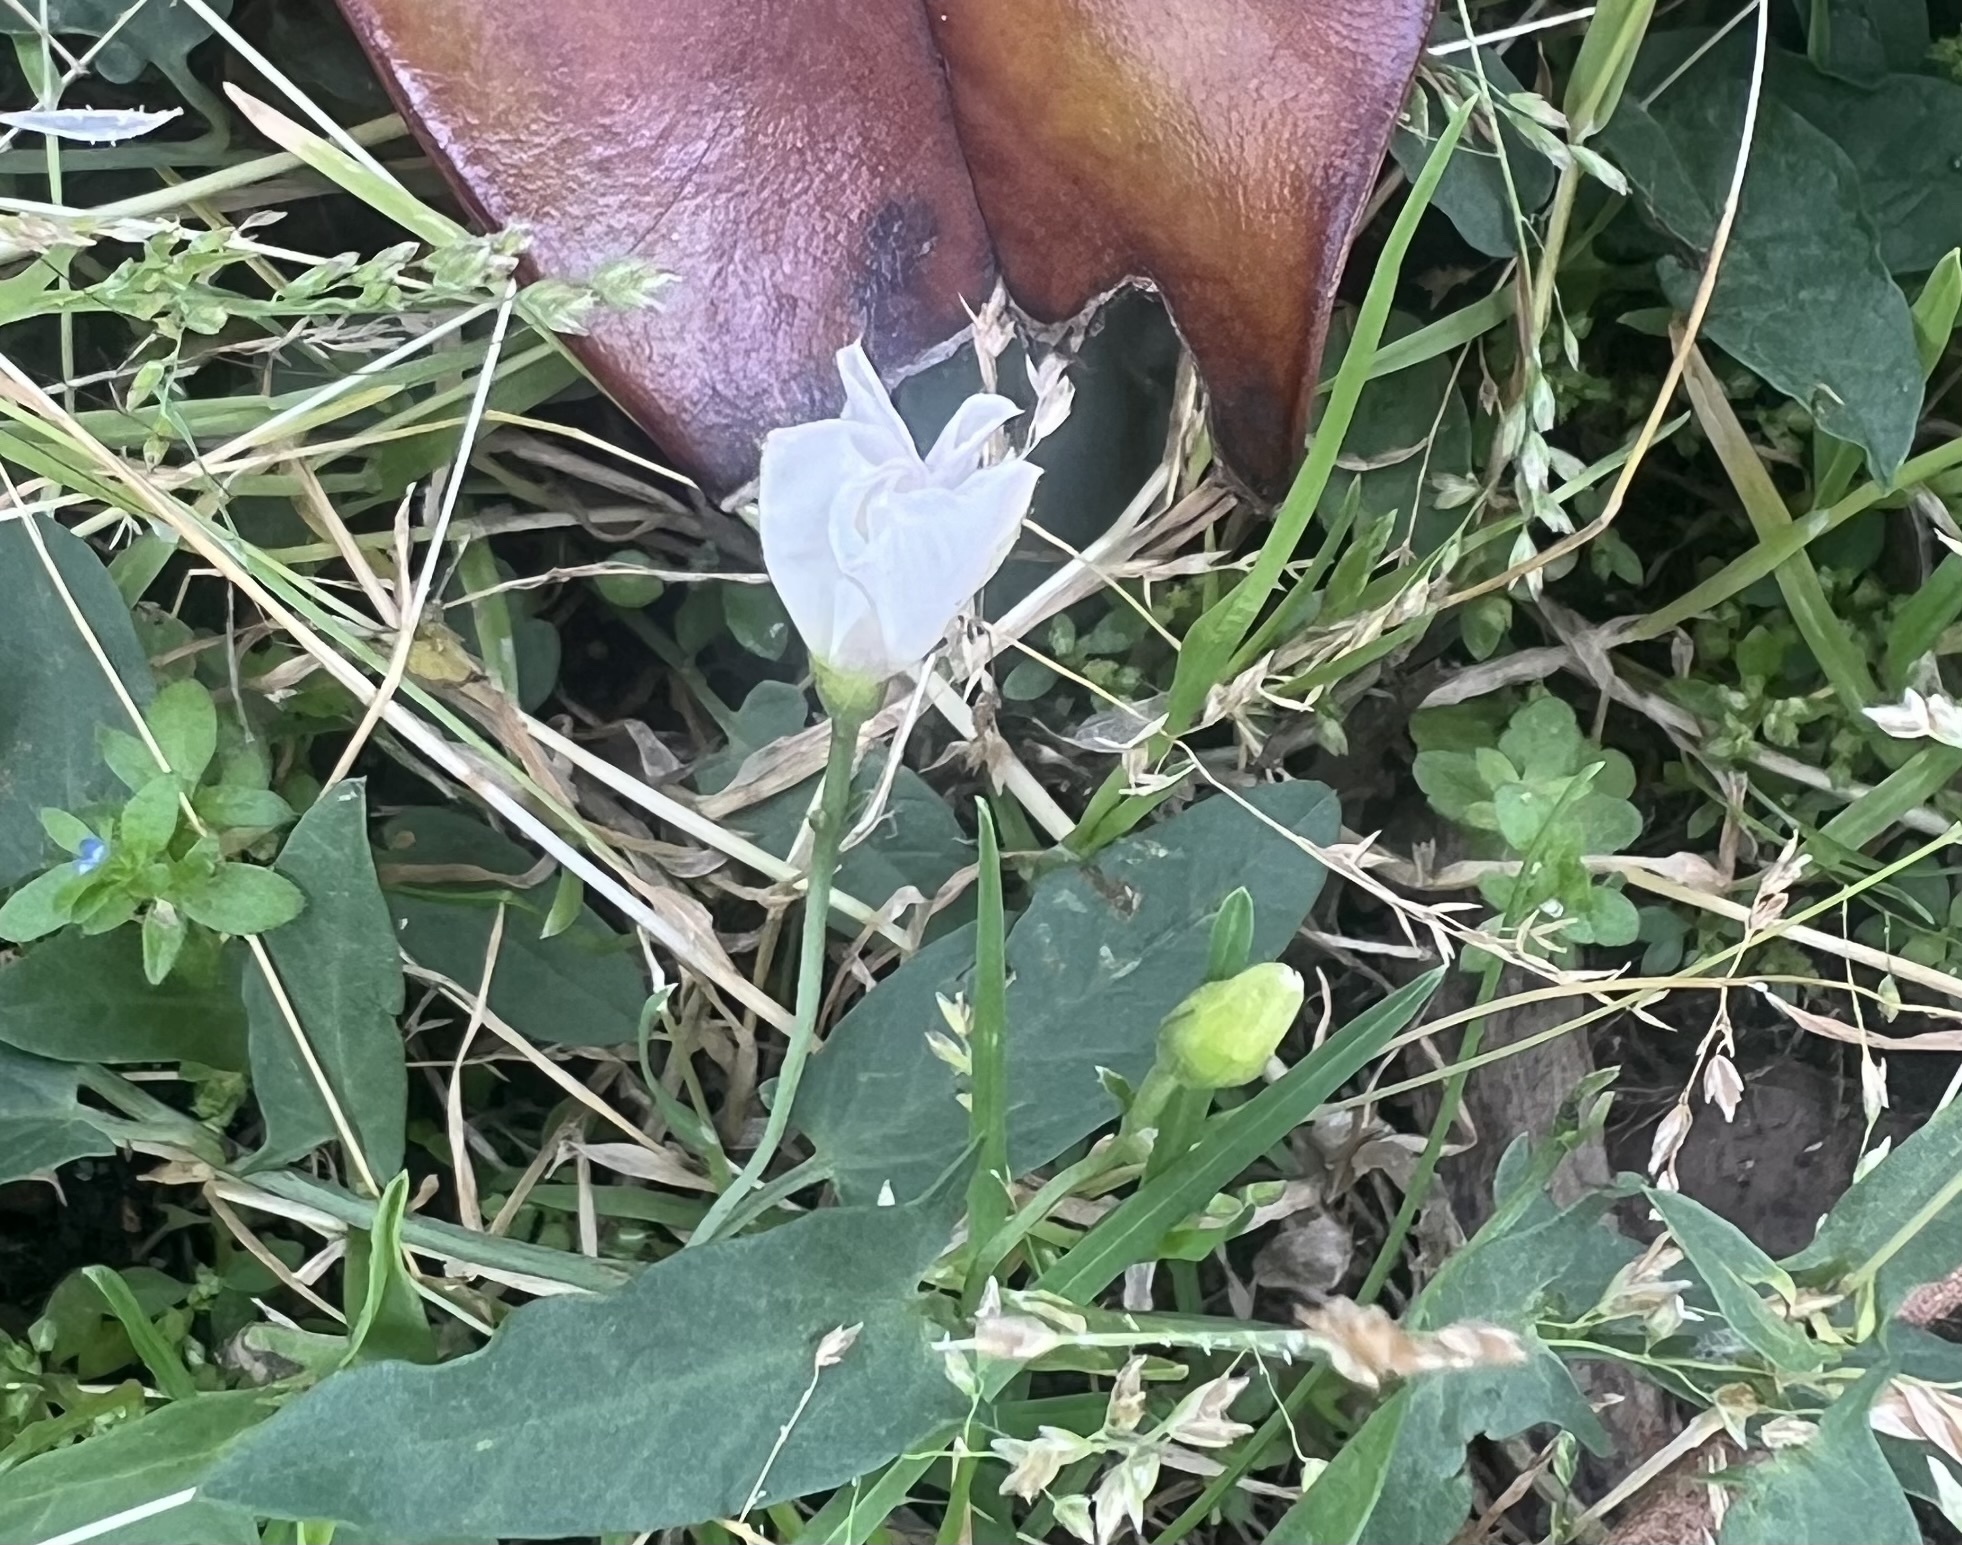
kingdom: Plantae
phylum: Tracheophyta
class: Magnoliopsida
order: Solanales
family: Convolvulaceae
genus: Convolvulus
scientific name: Convolvulus arvensis
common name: Field bindweed
